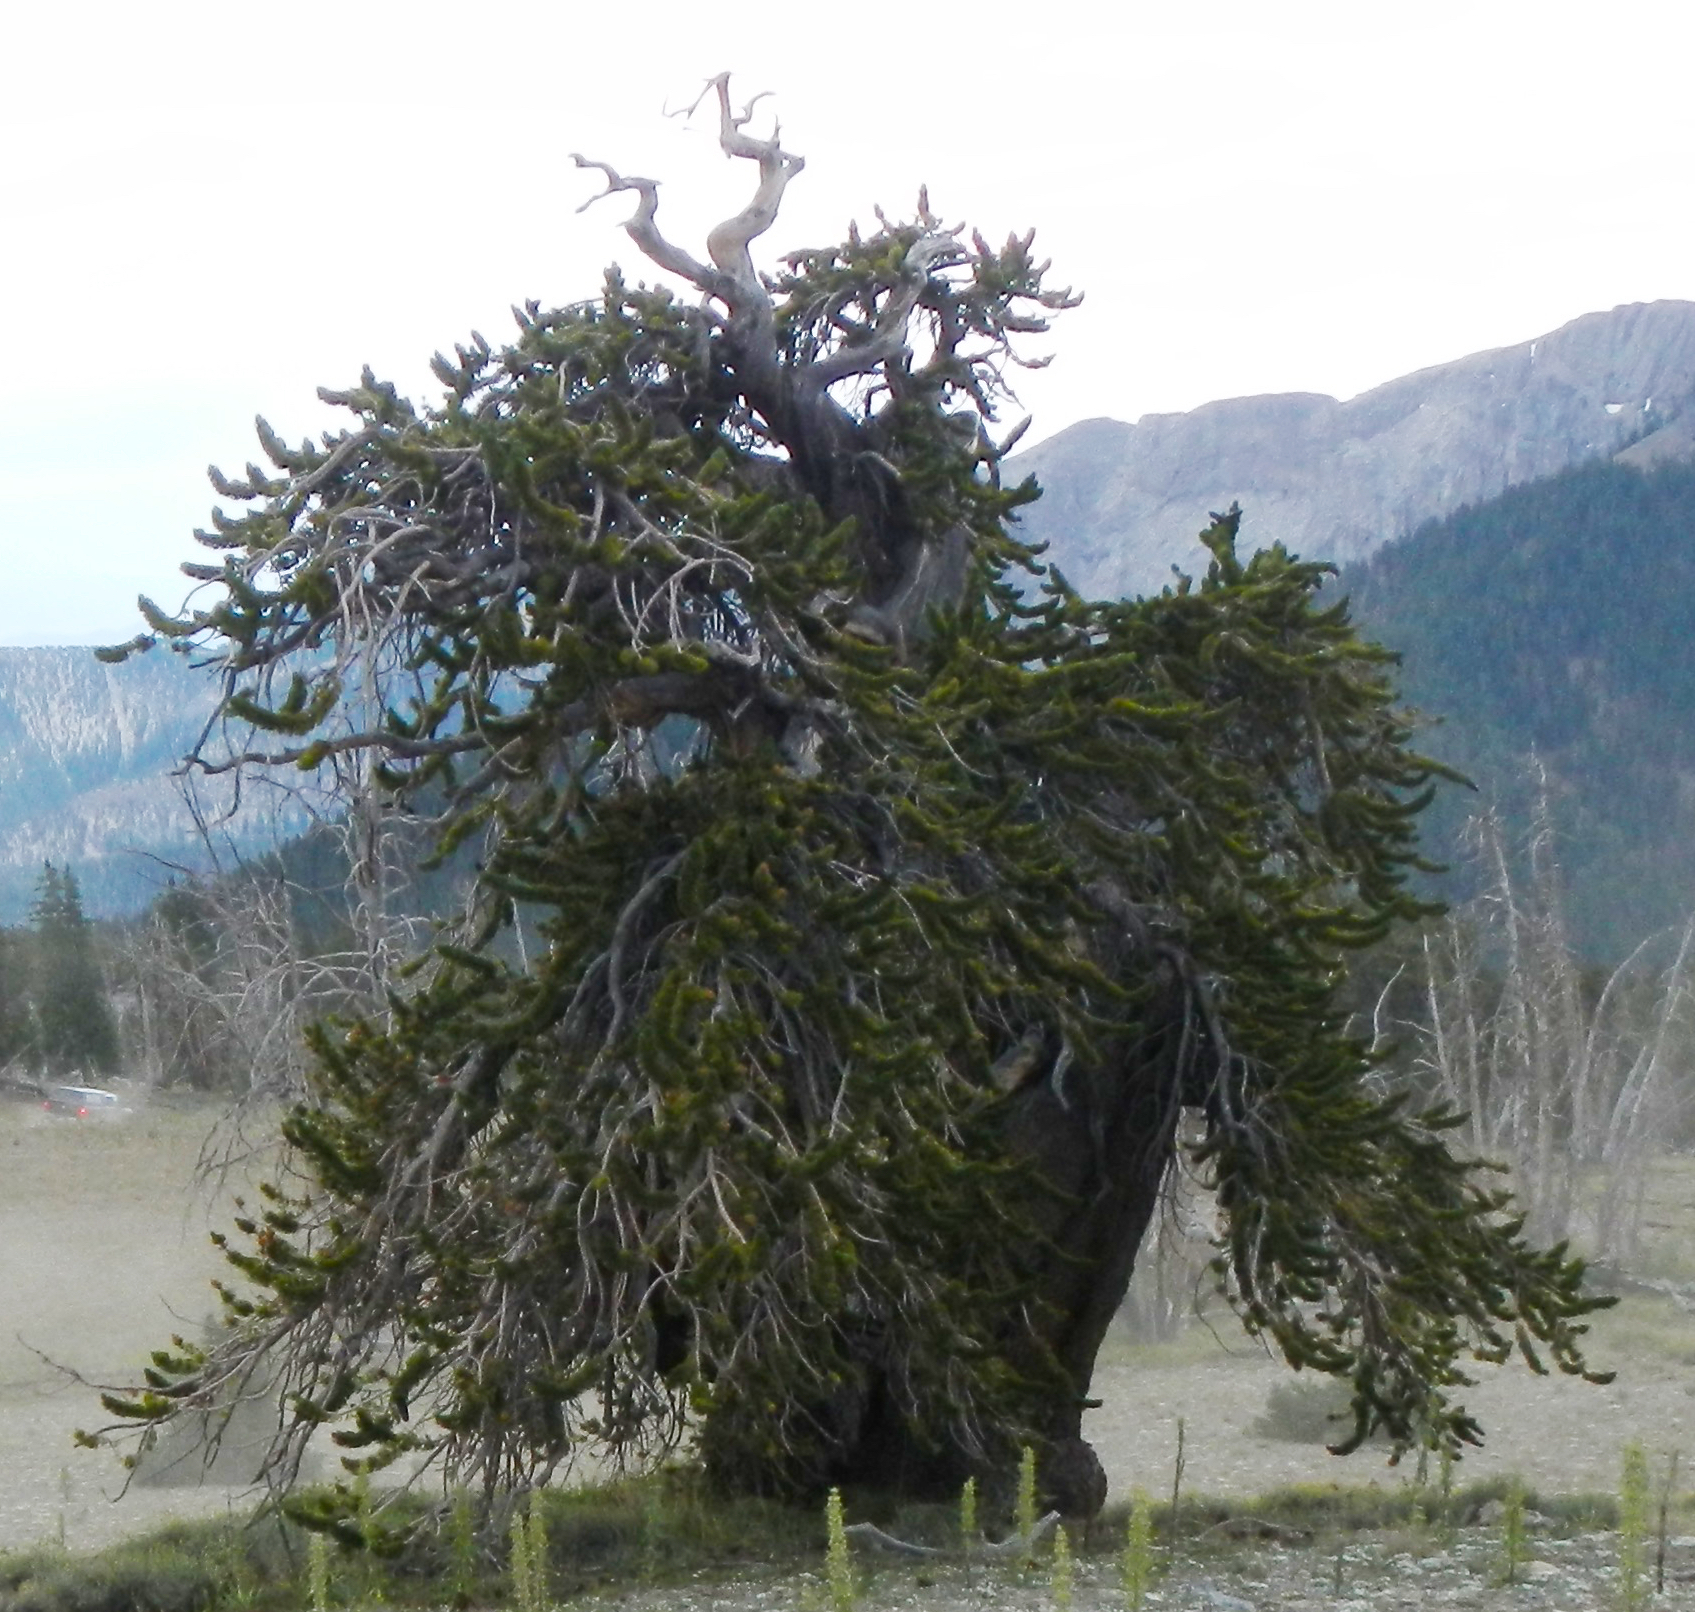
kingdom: Plantae
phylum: Tracheophyta
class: Pinopsida
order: Pinales
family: Pinaceae
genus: Pinus
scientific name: Pinus longaeva
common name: Intermountain bristlecone pine
